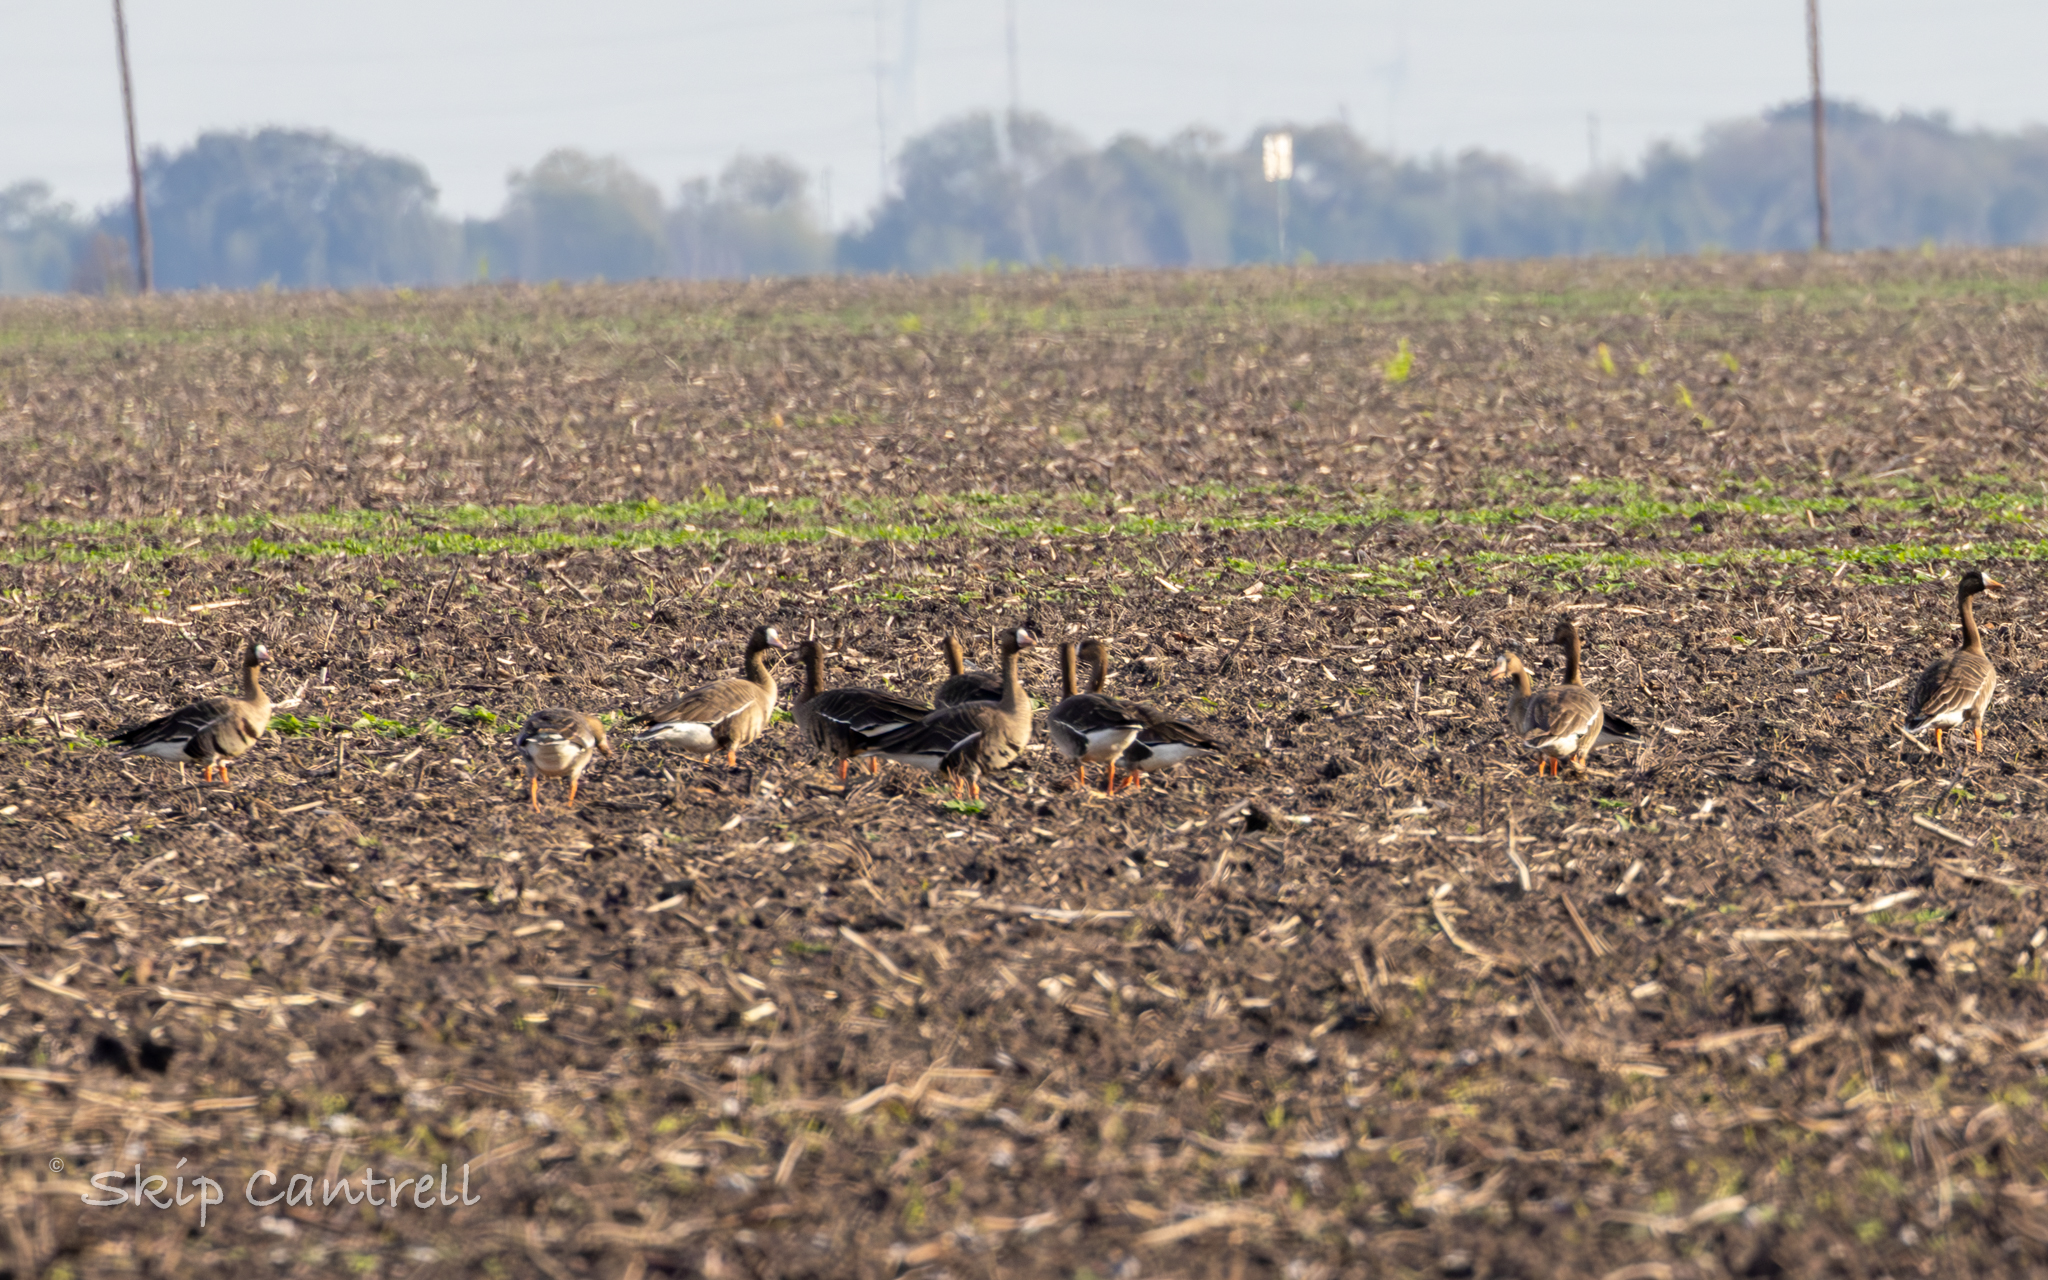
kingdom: Animalia
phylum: Chordata
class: Aves
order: Anseriformes
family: Anatidae
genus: Anser
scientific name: Anser albifrons
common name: Greater white-fronted goose
